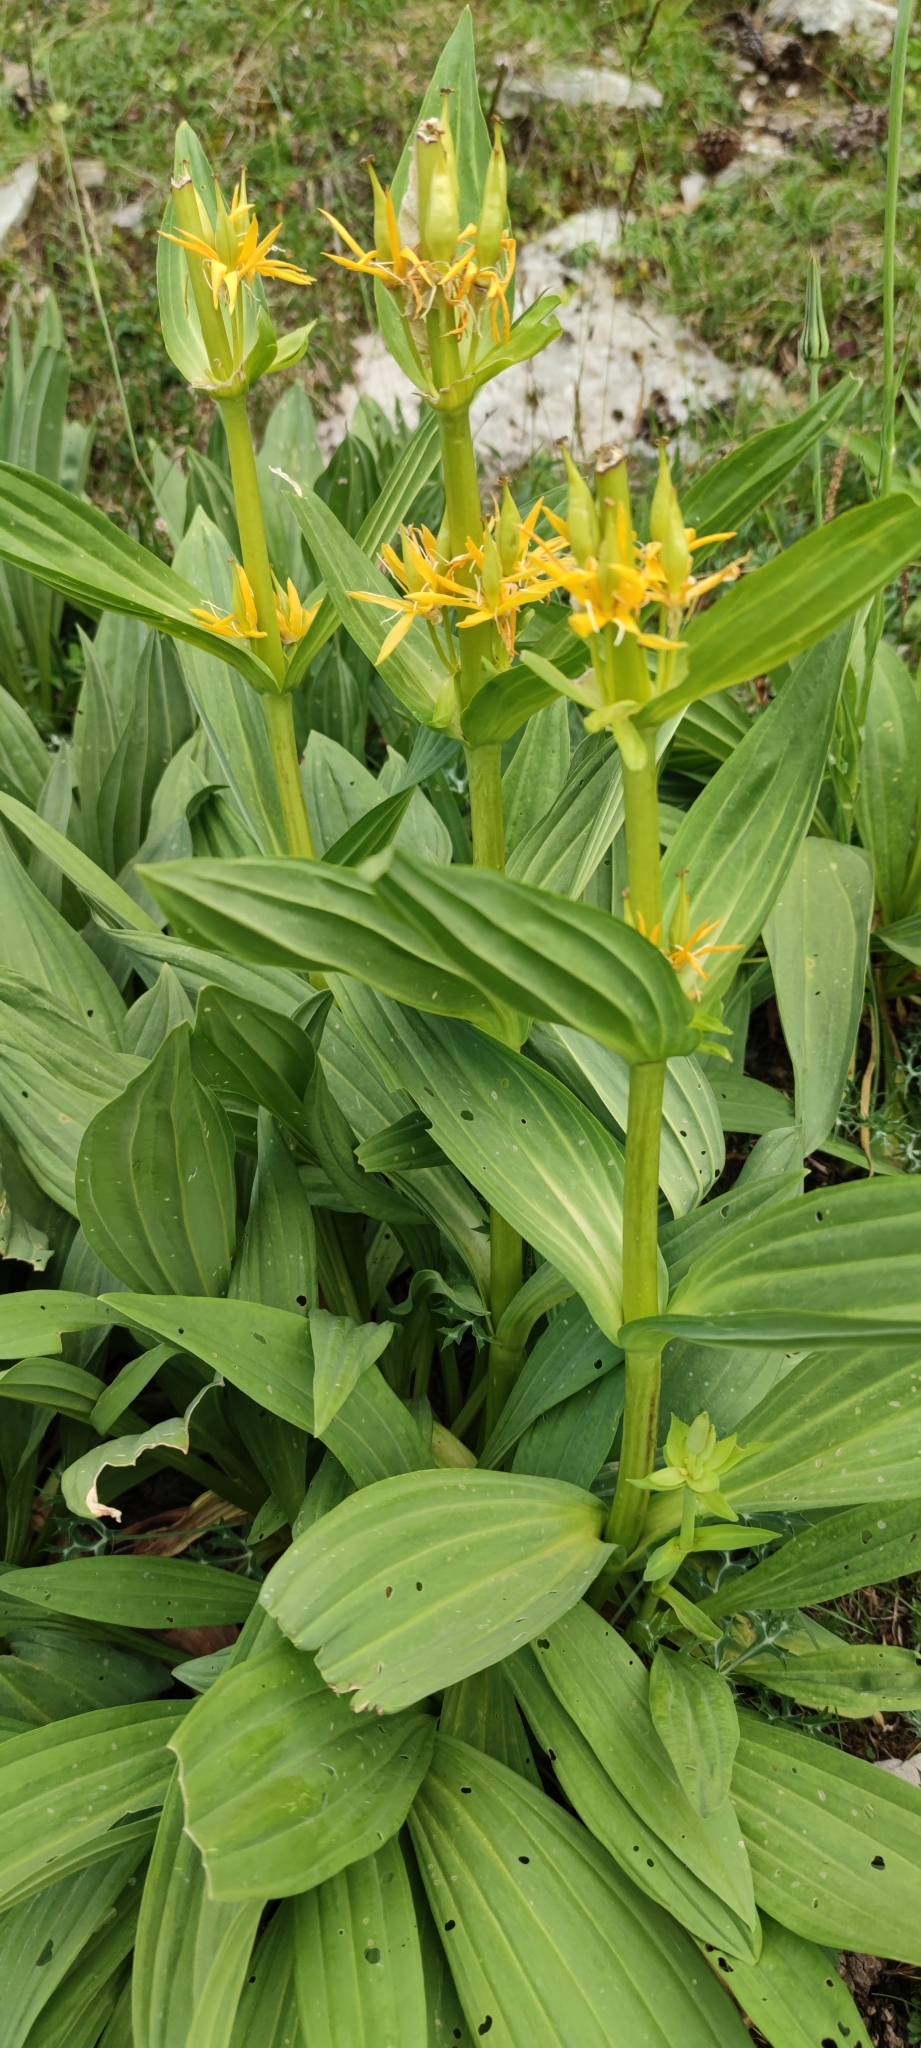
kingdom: Plantae
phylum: Tracheophyta
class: Magnoliopsida
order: Gentianales
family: Gentianaceae
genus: Gentiana
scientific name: Gentiana lutea
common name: Great yellow gentian
